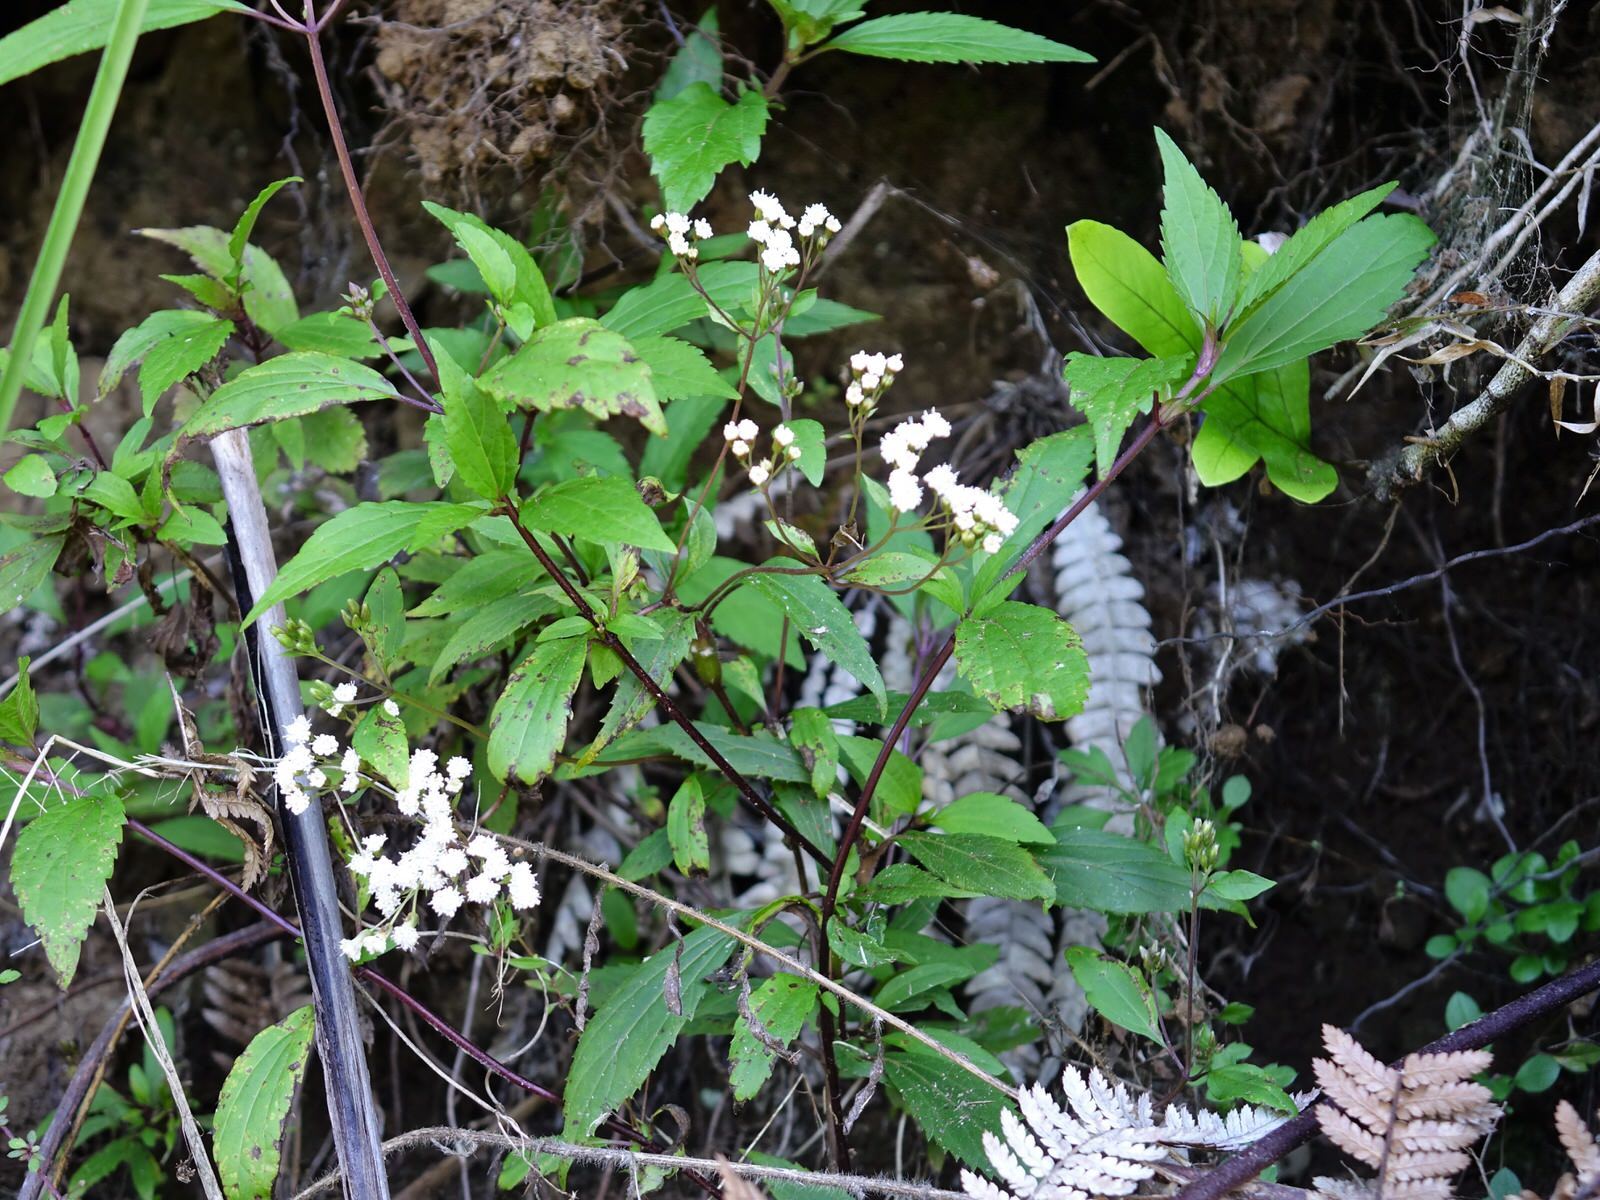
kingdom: Plantae
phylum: Tracheophyta
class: Magnoliopsida
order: Asterales
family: Asteraceae
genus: Ageratina
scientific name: Ageratina riparia
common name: Creeping croftonweed
